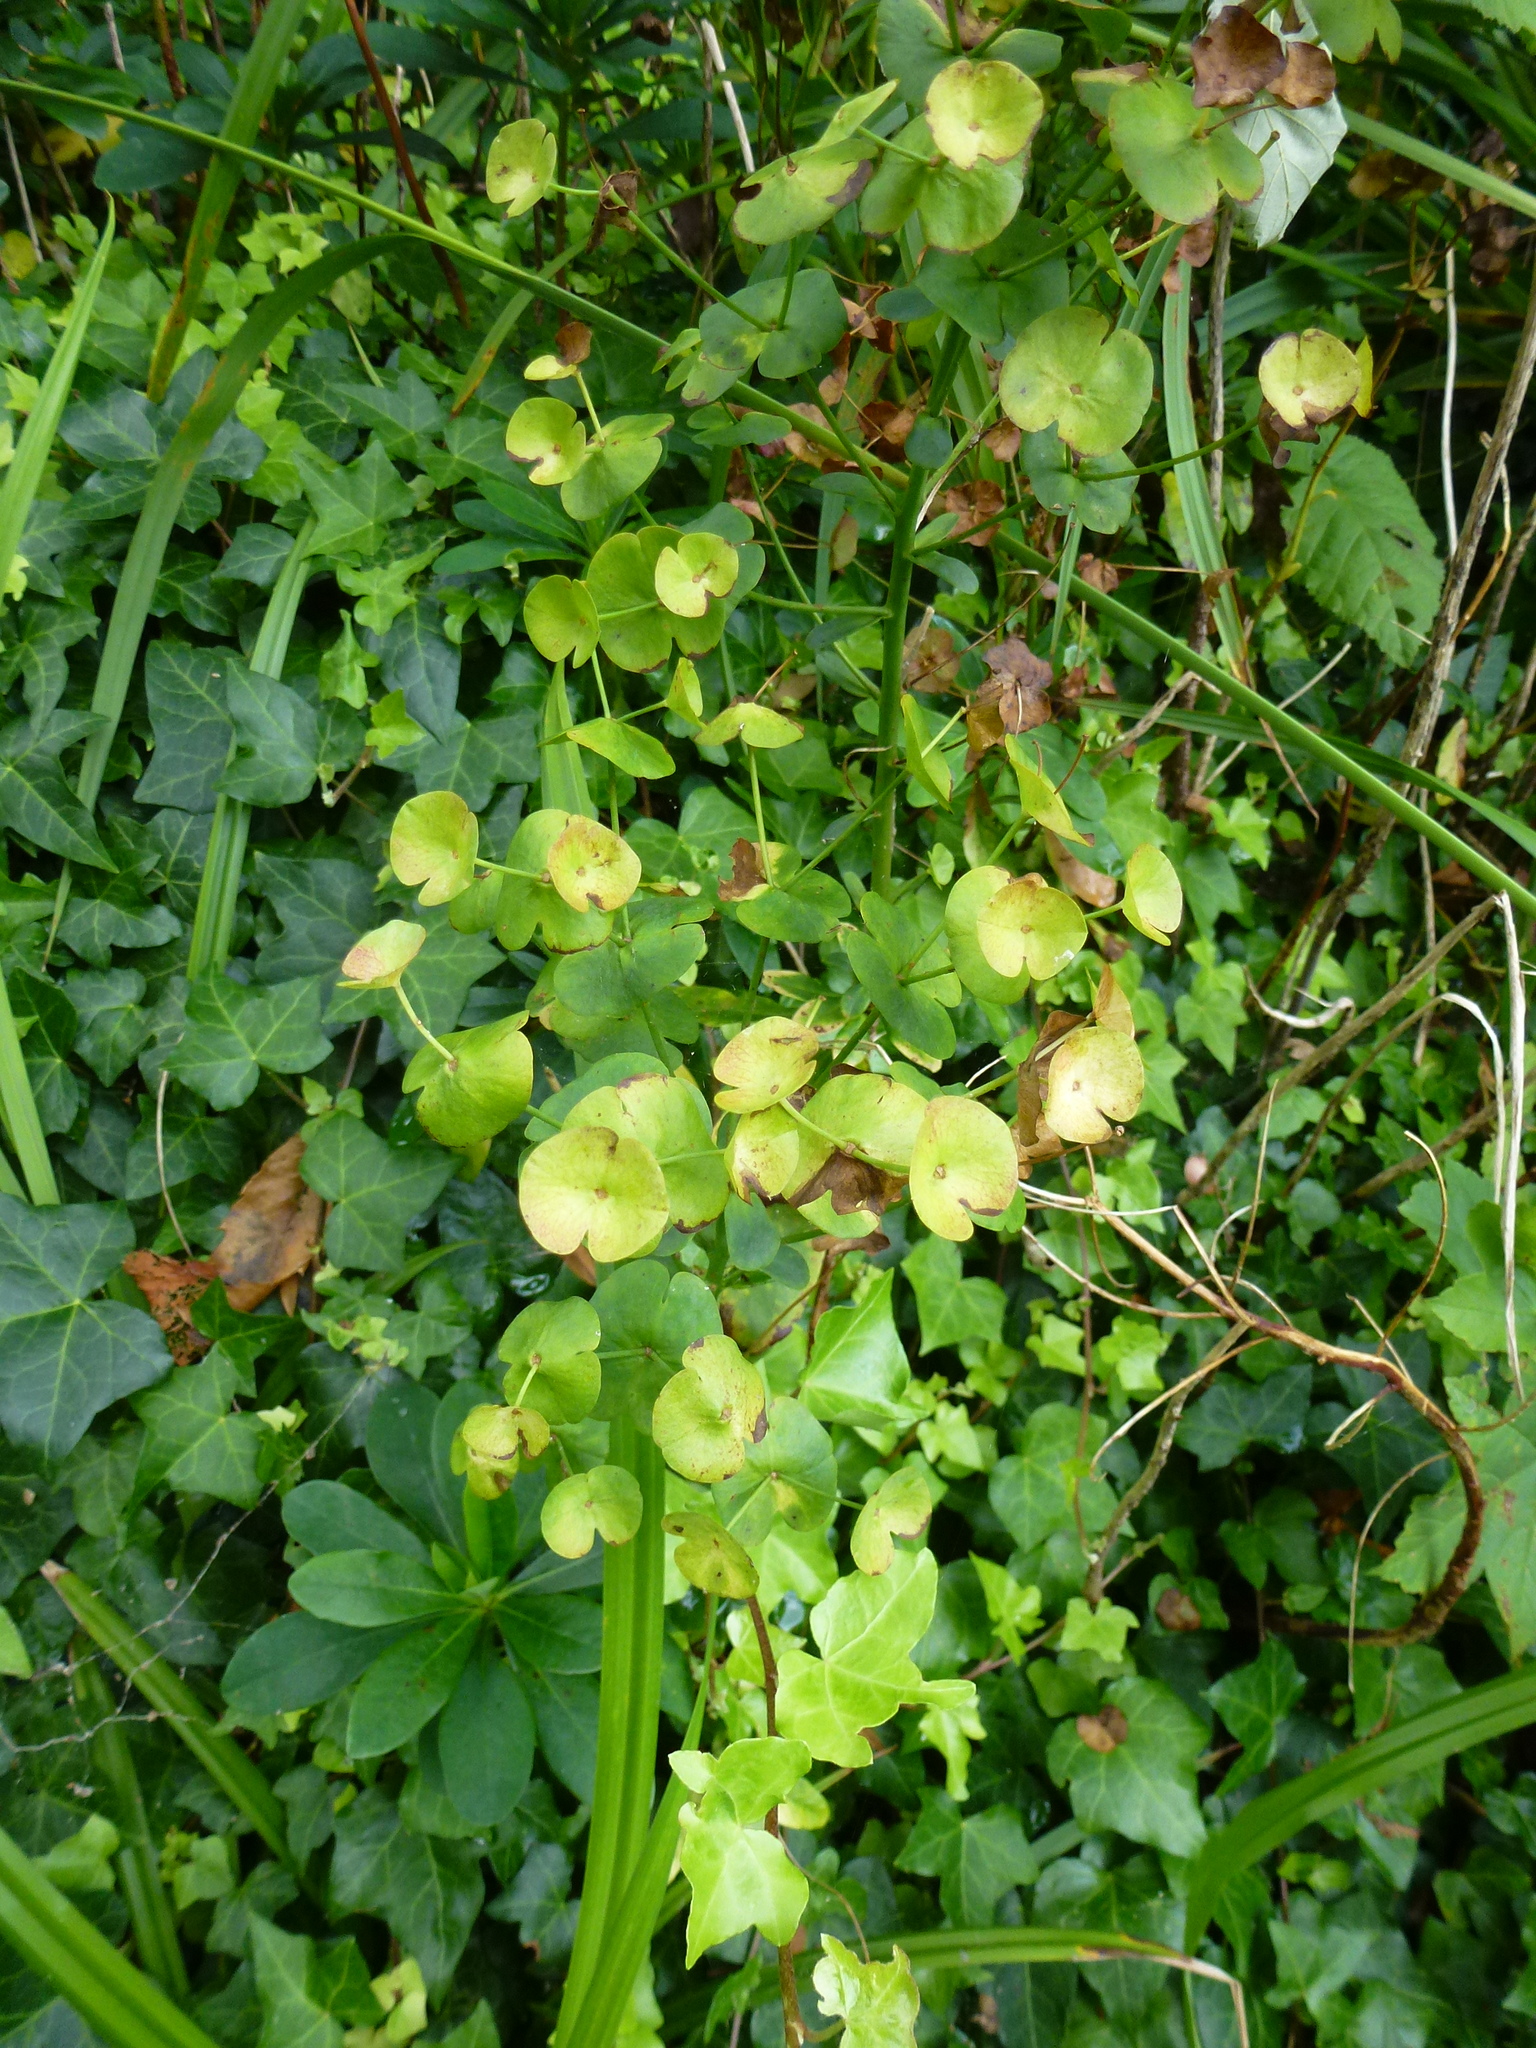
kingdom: Plantae
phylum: Tracheophyta
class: Magnoliopsida
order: Malpighiales
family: Euphorbiaceae
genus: Euphorbia
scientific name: Euphorbia amygdaloides
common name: Wood spurge
